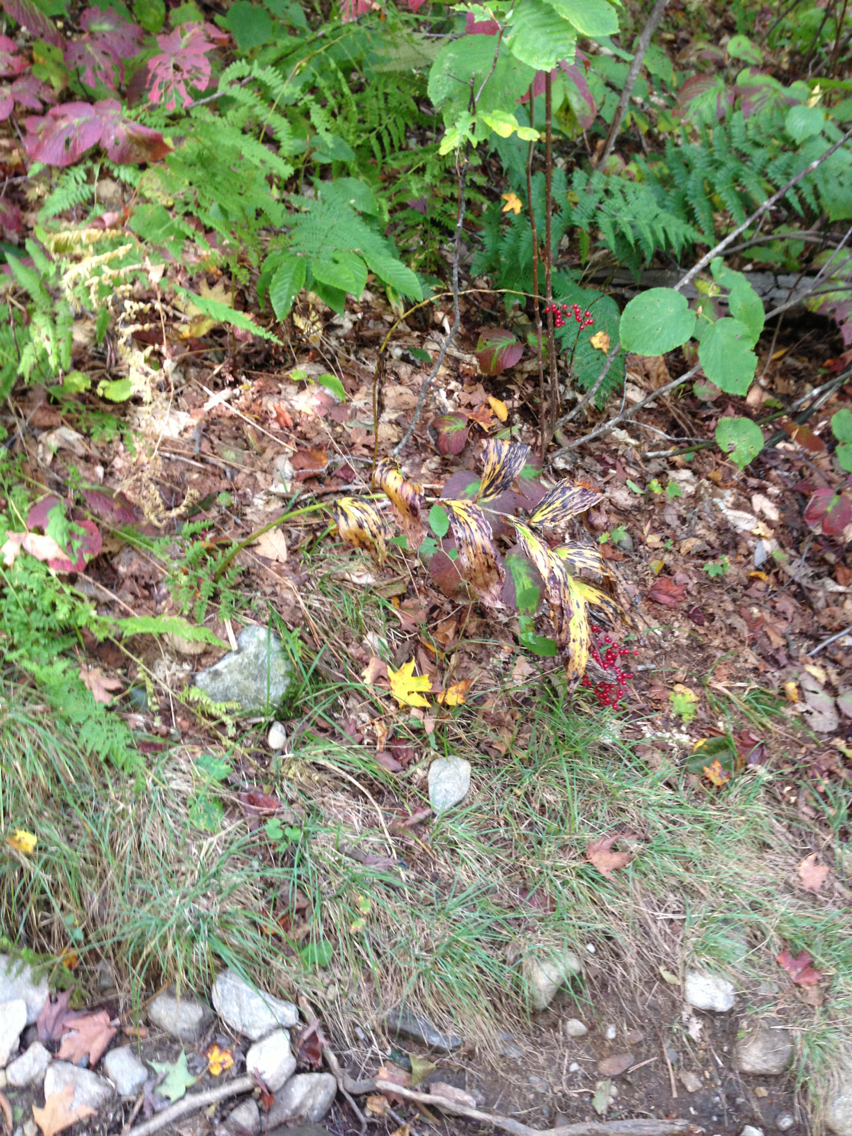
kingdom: Plantae
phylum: Tracheophyta
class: Liliopsida
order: Asparagales
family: Asparagaceae
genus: Maianthemum
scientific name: Maianthemum racemosum
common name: False spikenard
